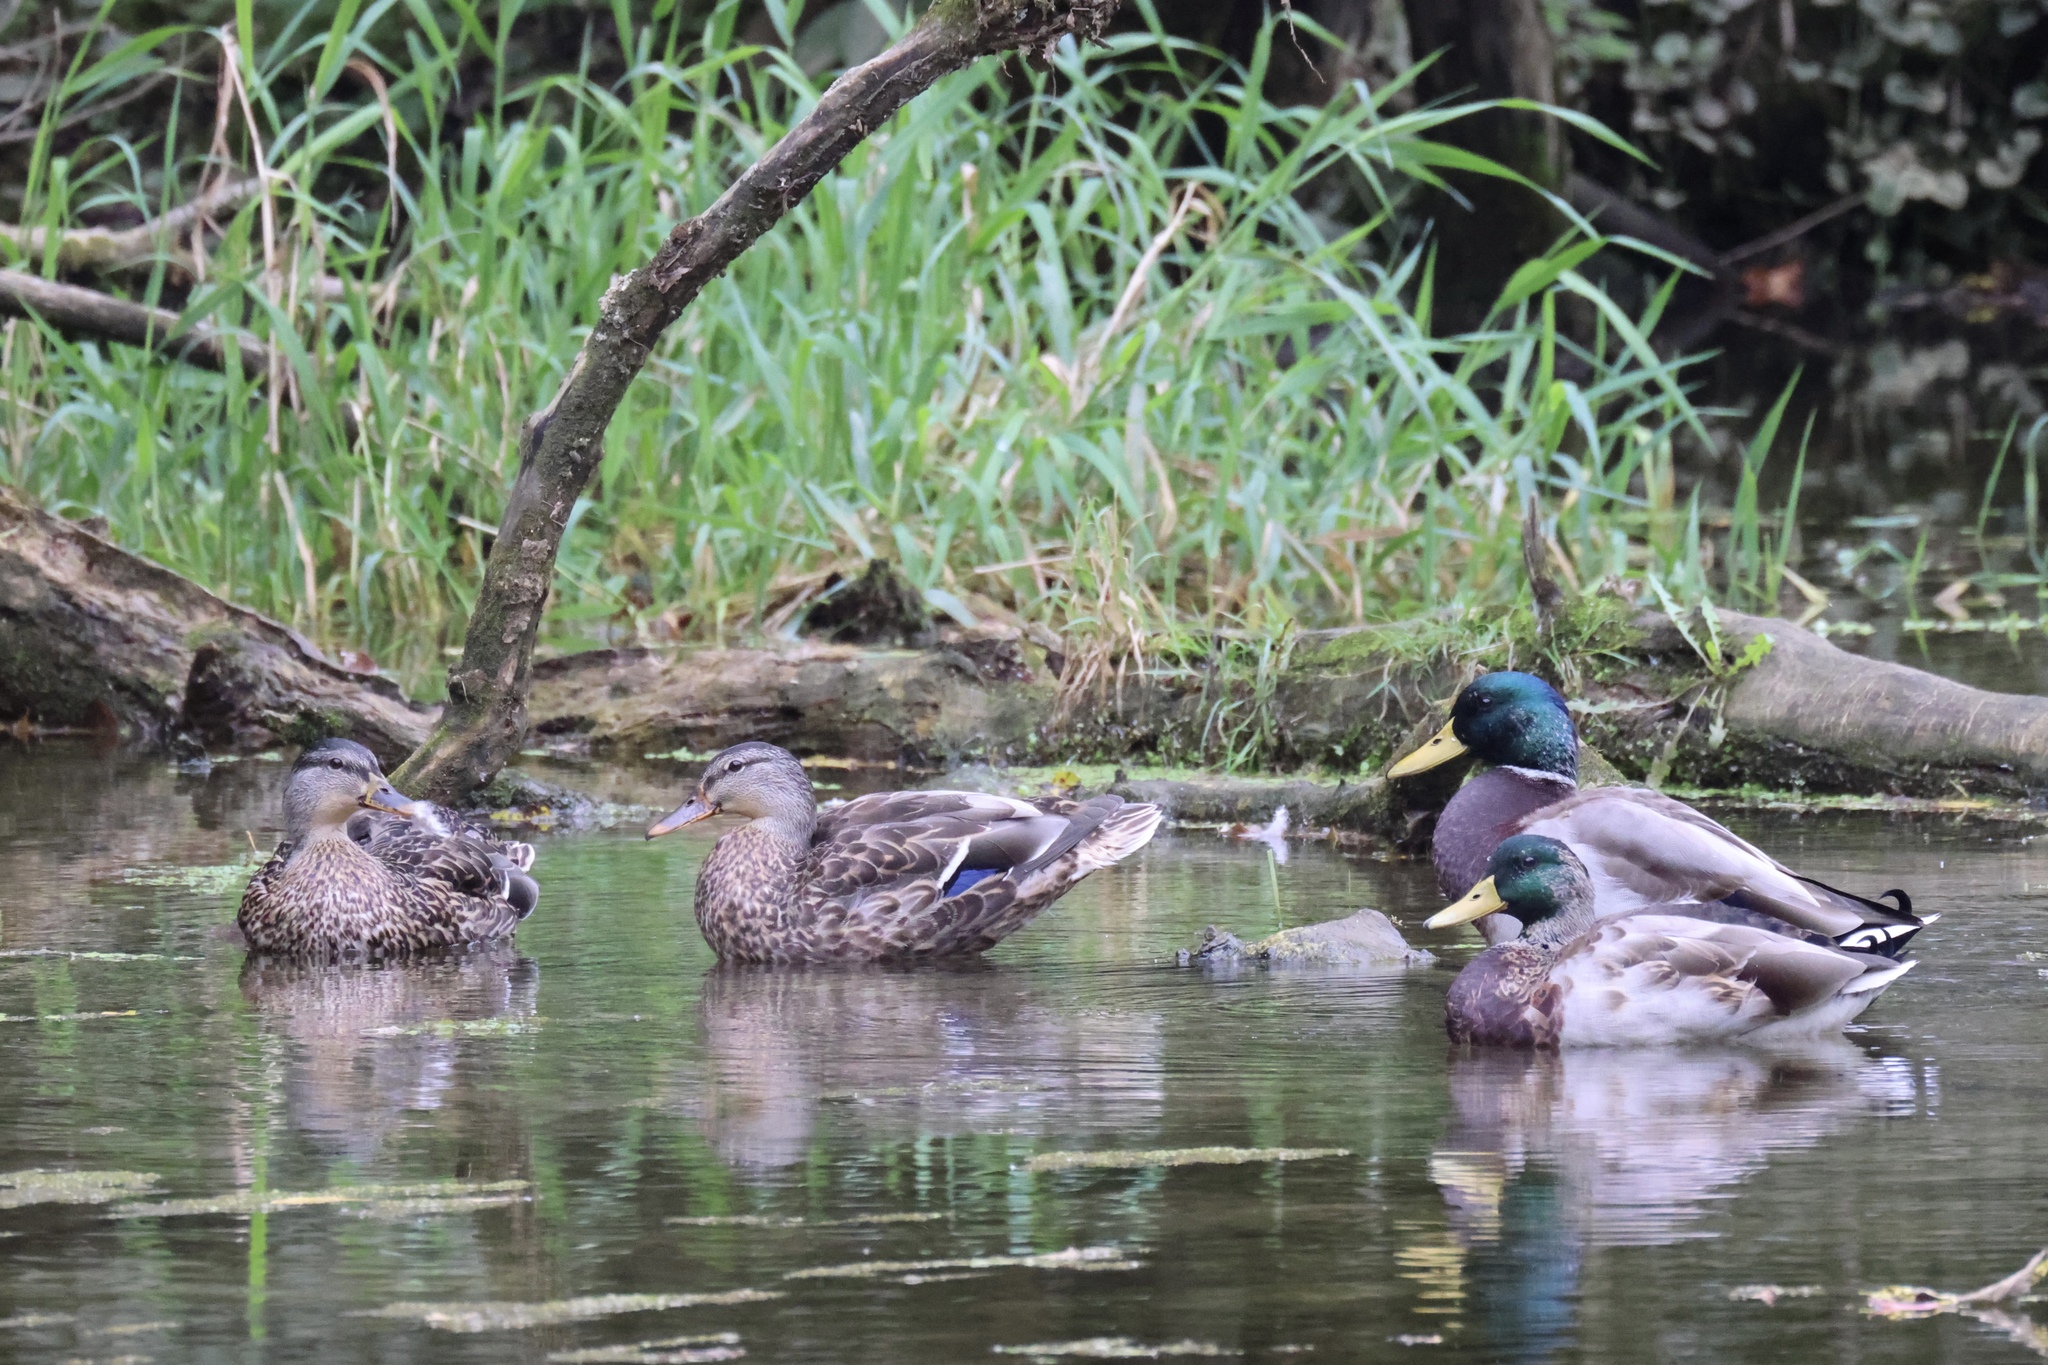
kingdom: Animalia
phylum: Chordata
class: Aves
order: Anseriformes
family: Anatidae
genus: Anas
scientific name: Anas platyrhynchos
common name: Mallard
